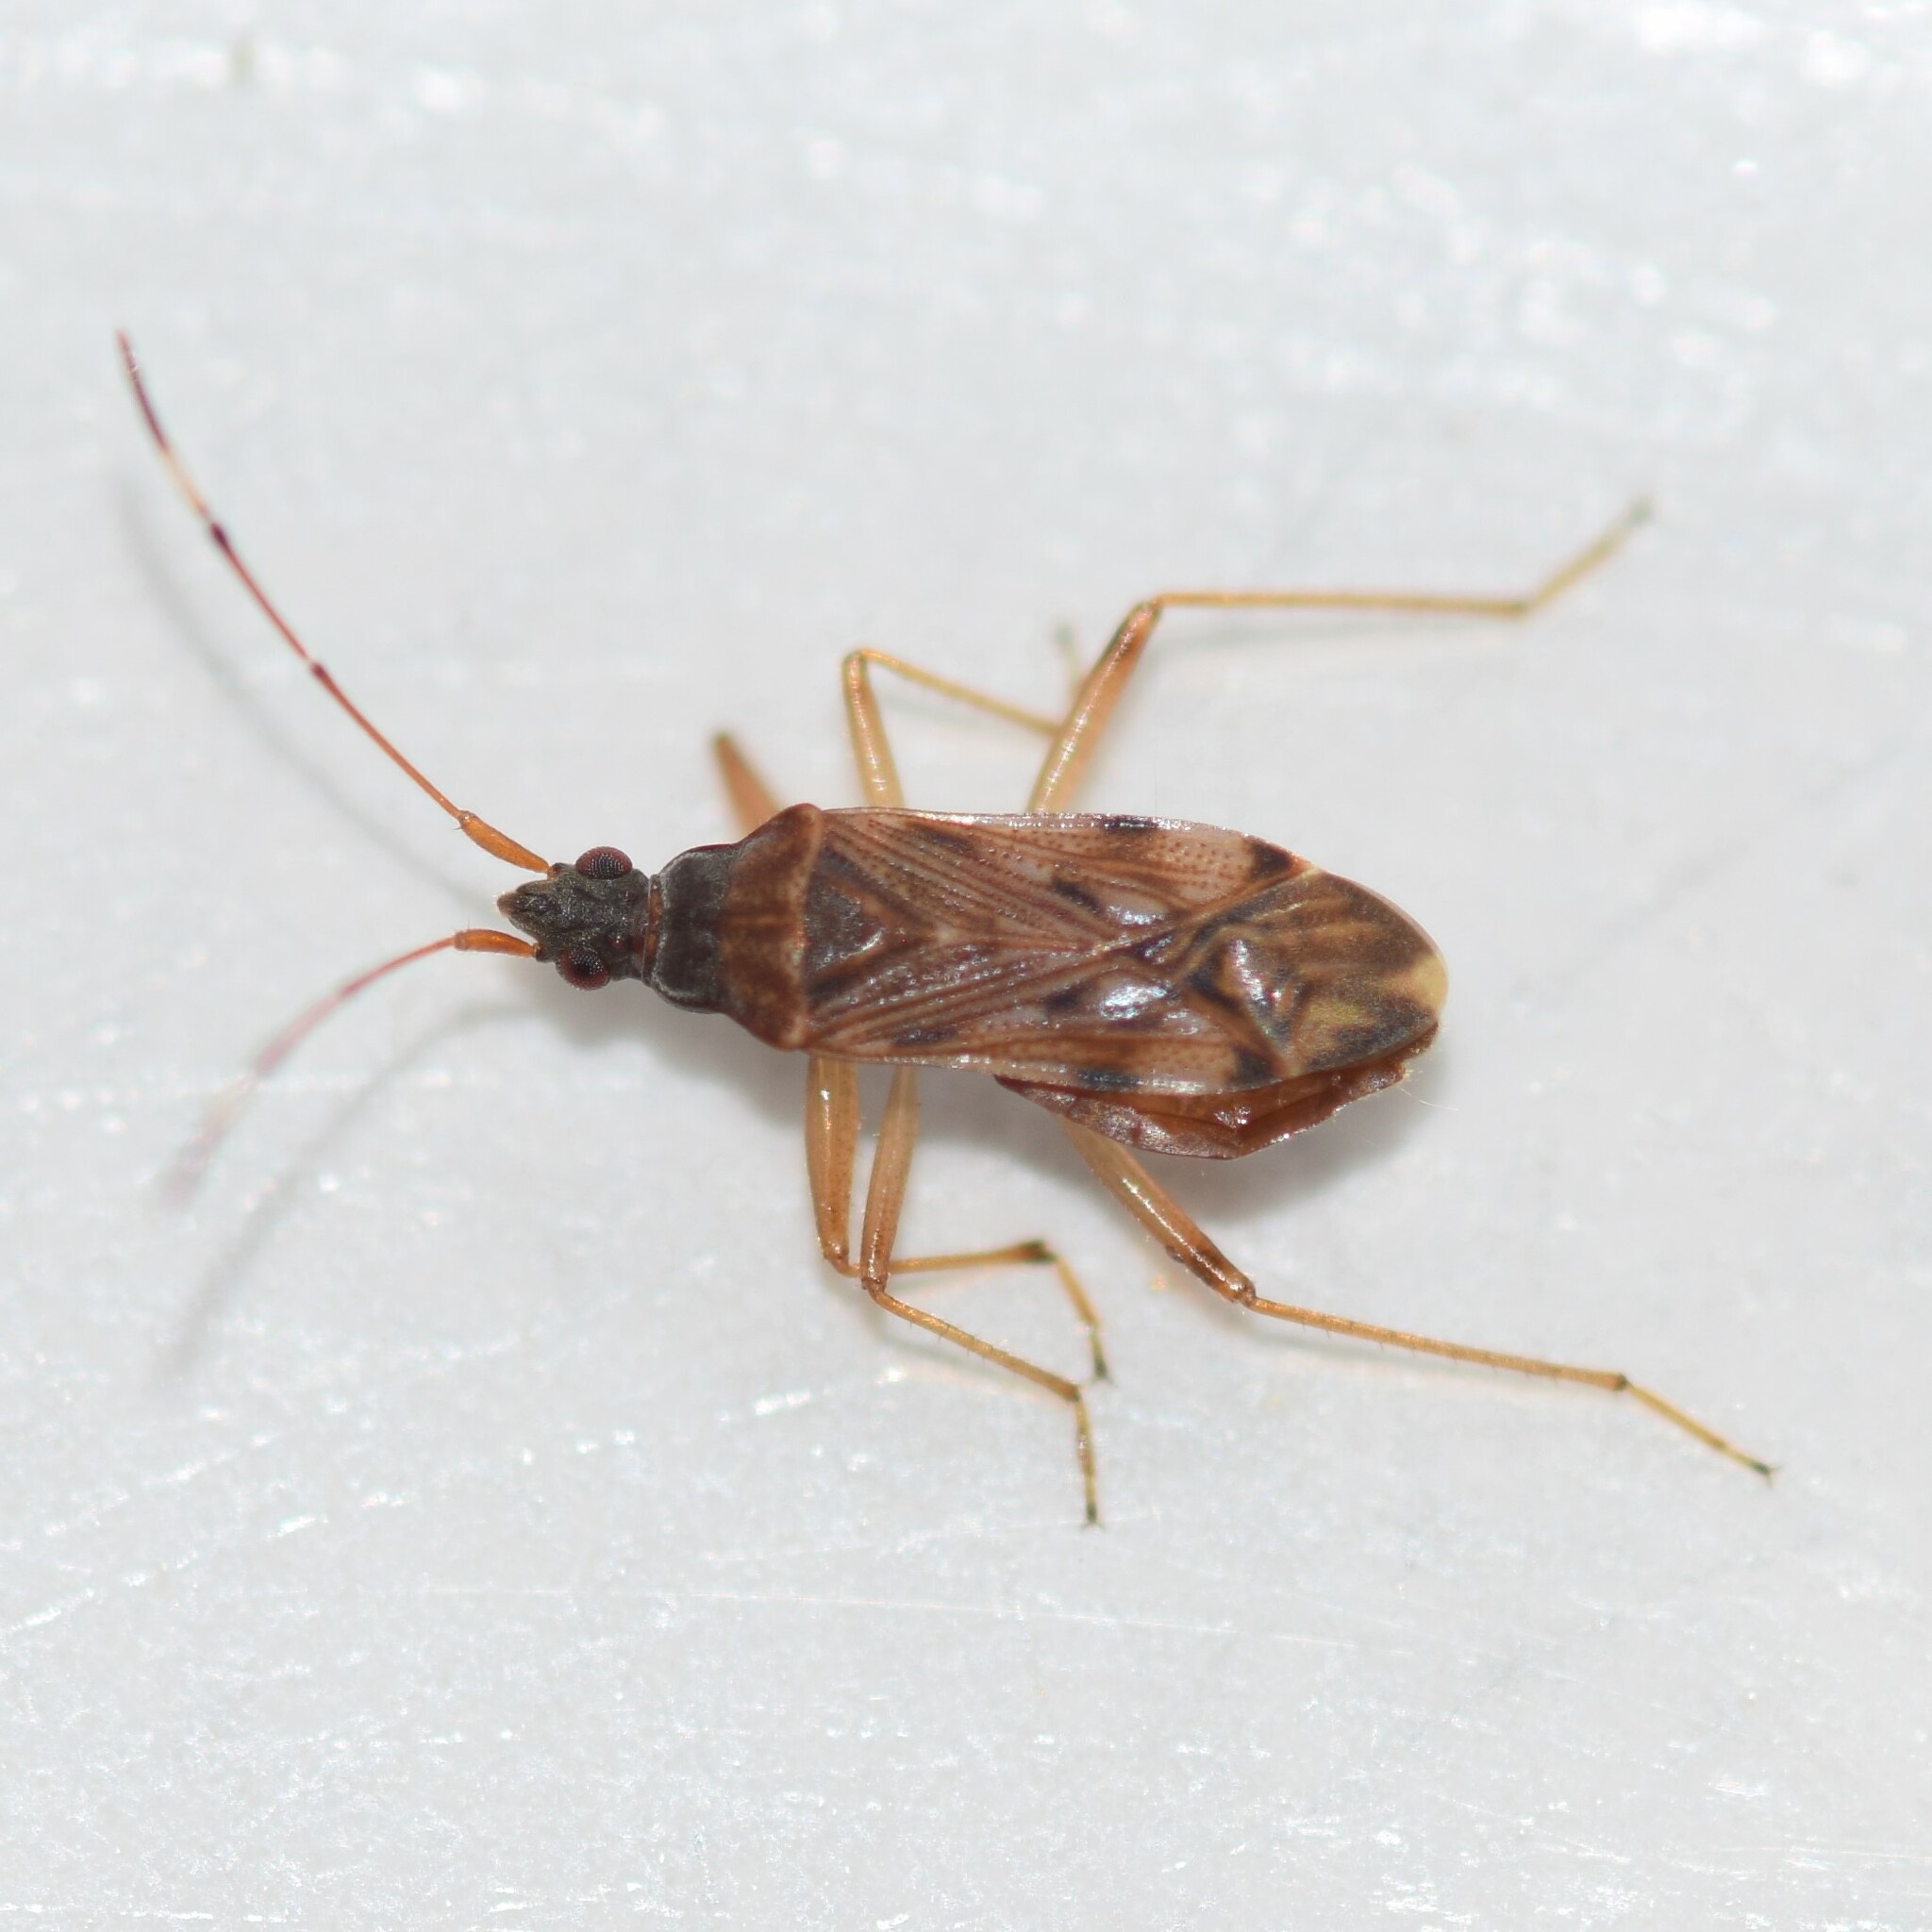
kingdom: Animalia
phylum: Arthropoda
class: Insecta
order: Hemiptera
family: Rhyparochromidae
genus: Ozophora
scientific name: Ozophora picturata
